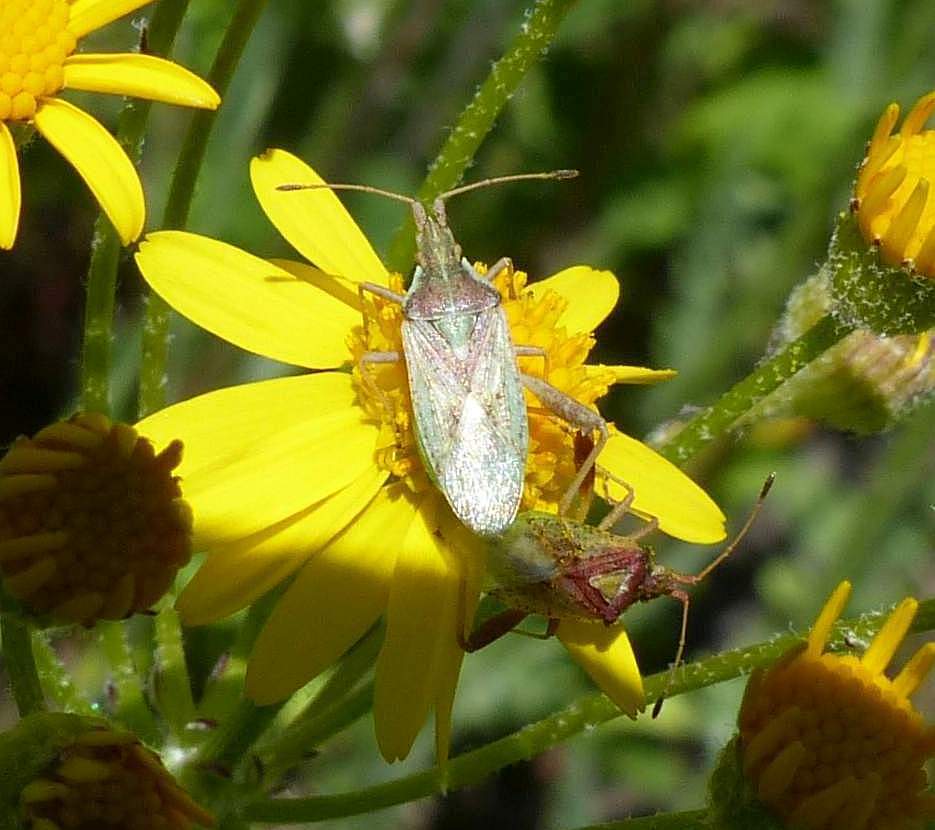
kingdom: Animalia
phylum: Arthropoda
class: Insecta
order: Hemiptera
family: Rhopalidae
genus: Harmostes
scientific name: Harmostes reflexulus
